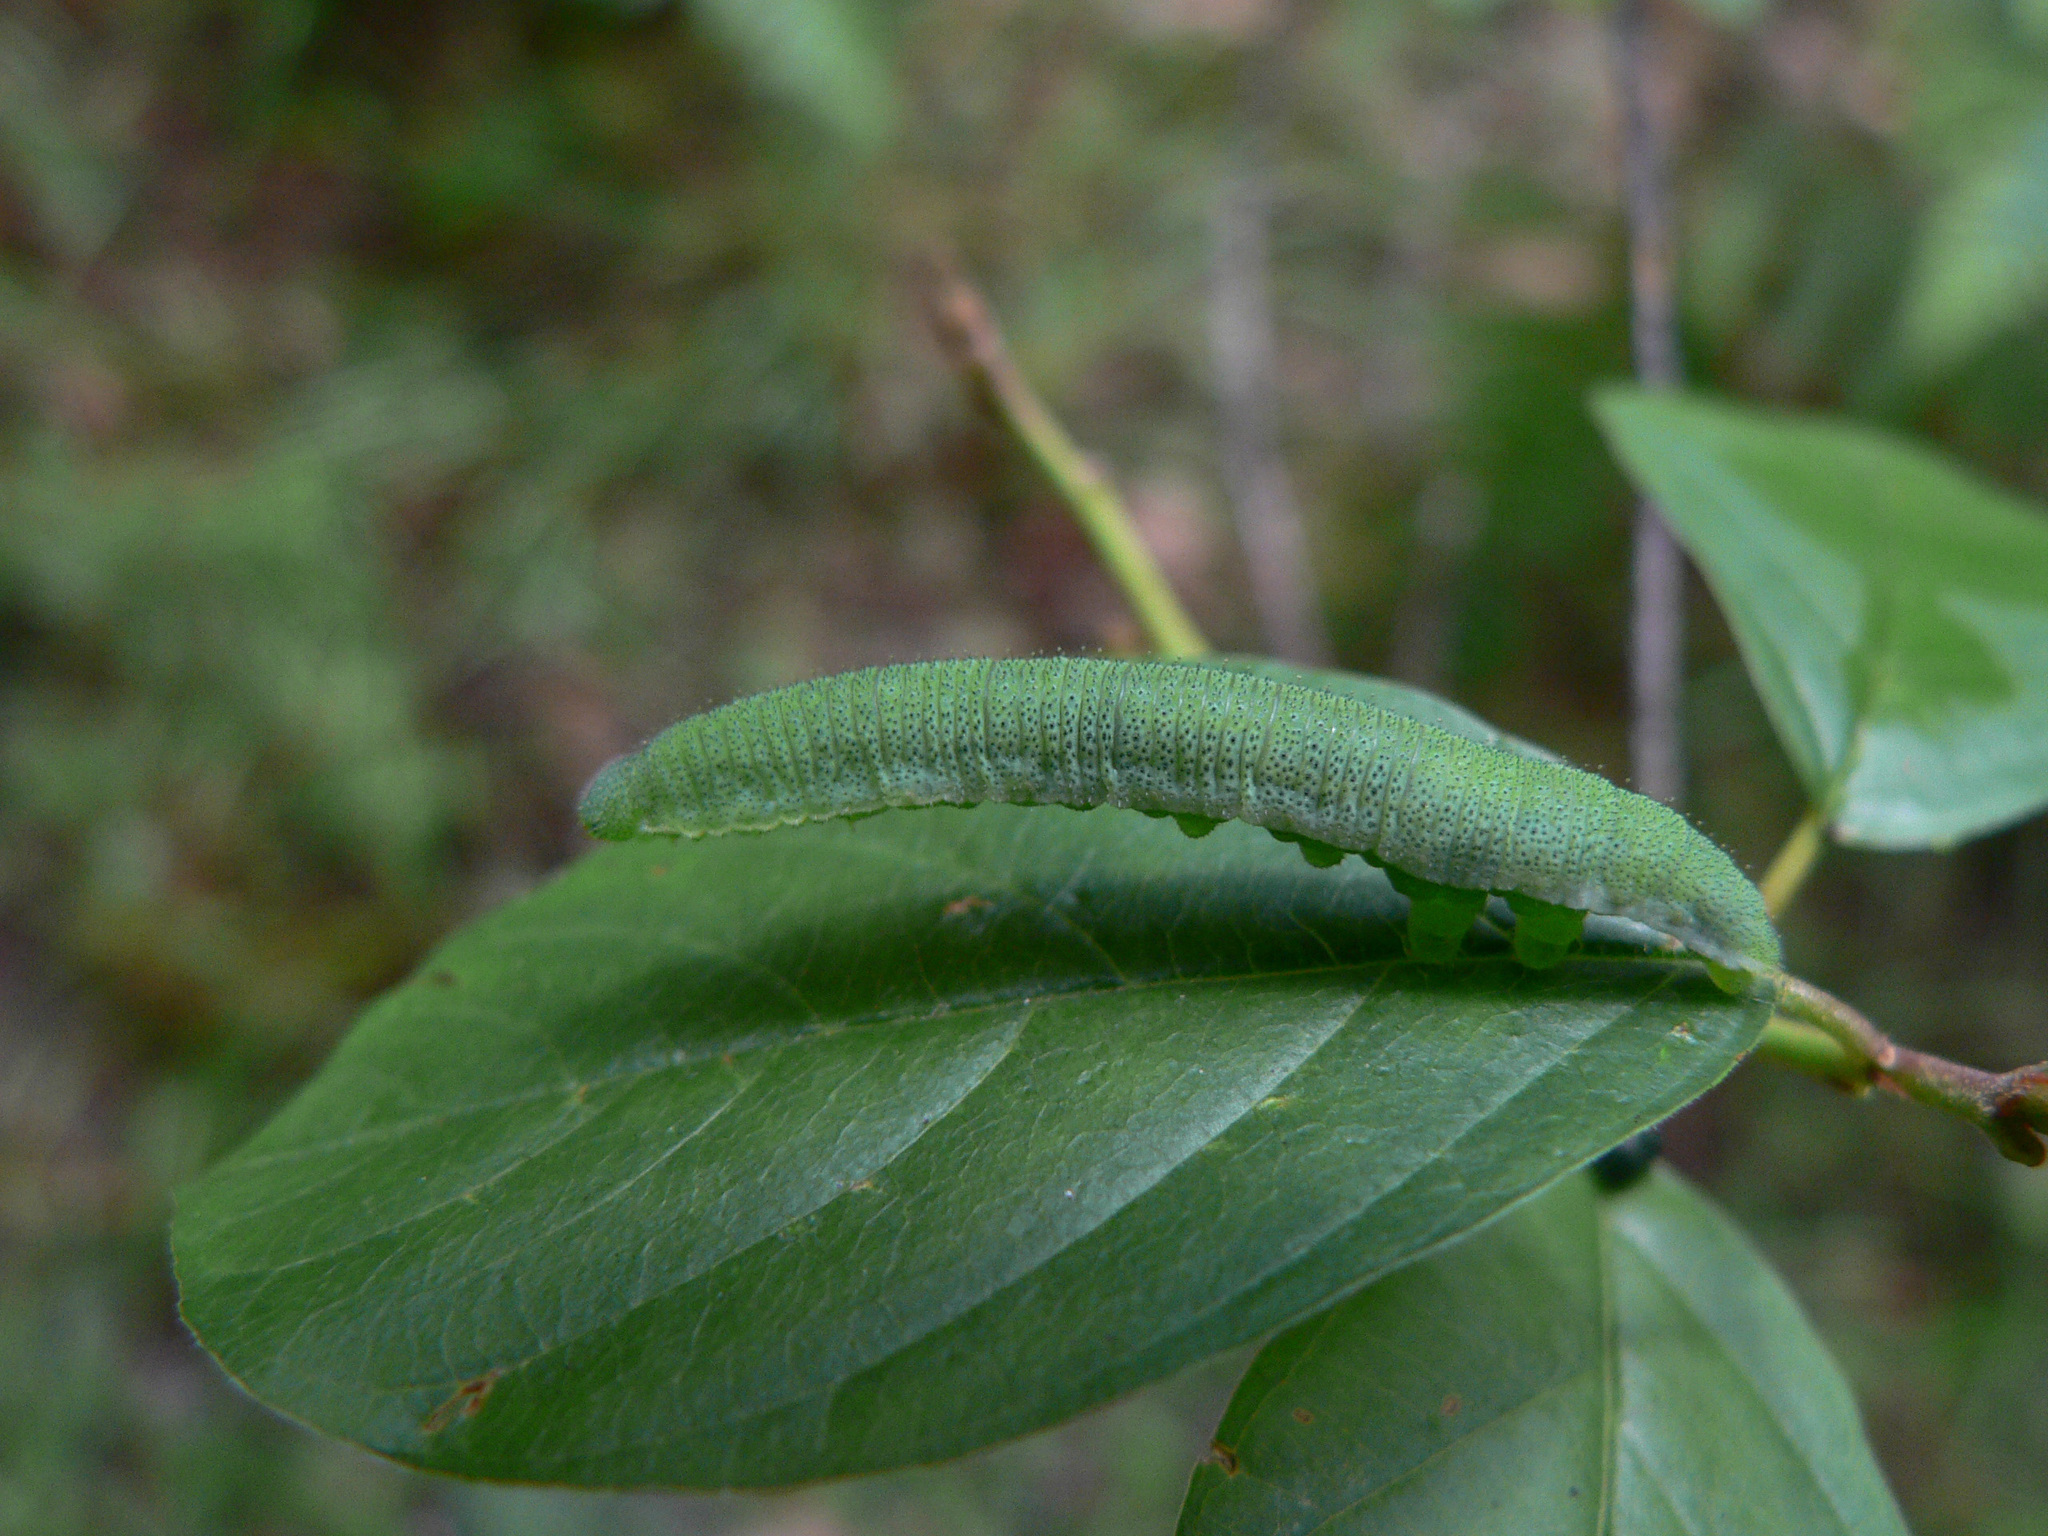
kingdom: Animalia
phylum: Arthropoda
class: Insecta
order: Lepidoptera
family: Pieridae
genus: Gonepteryx
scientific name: Gonepteryx rhamni
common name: Brimstone
